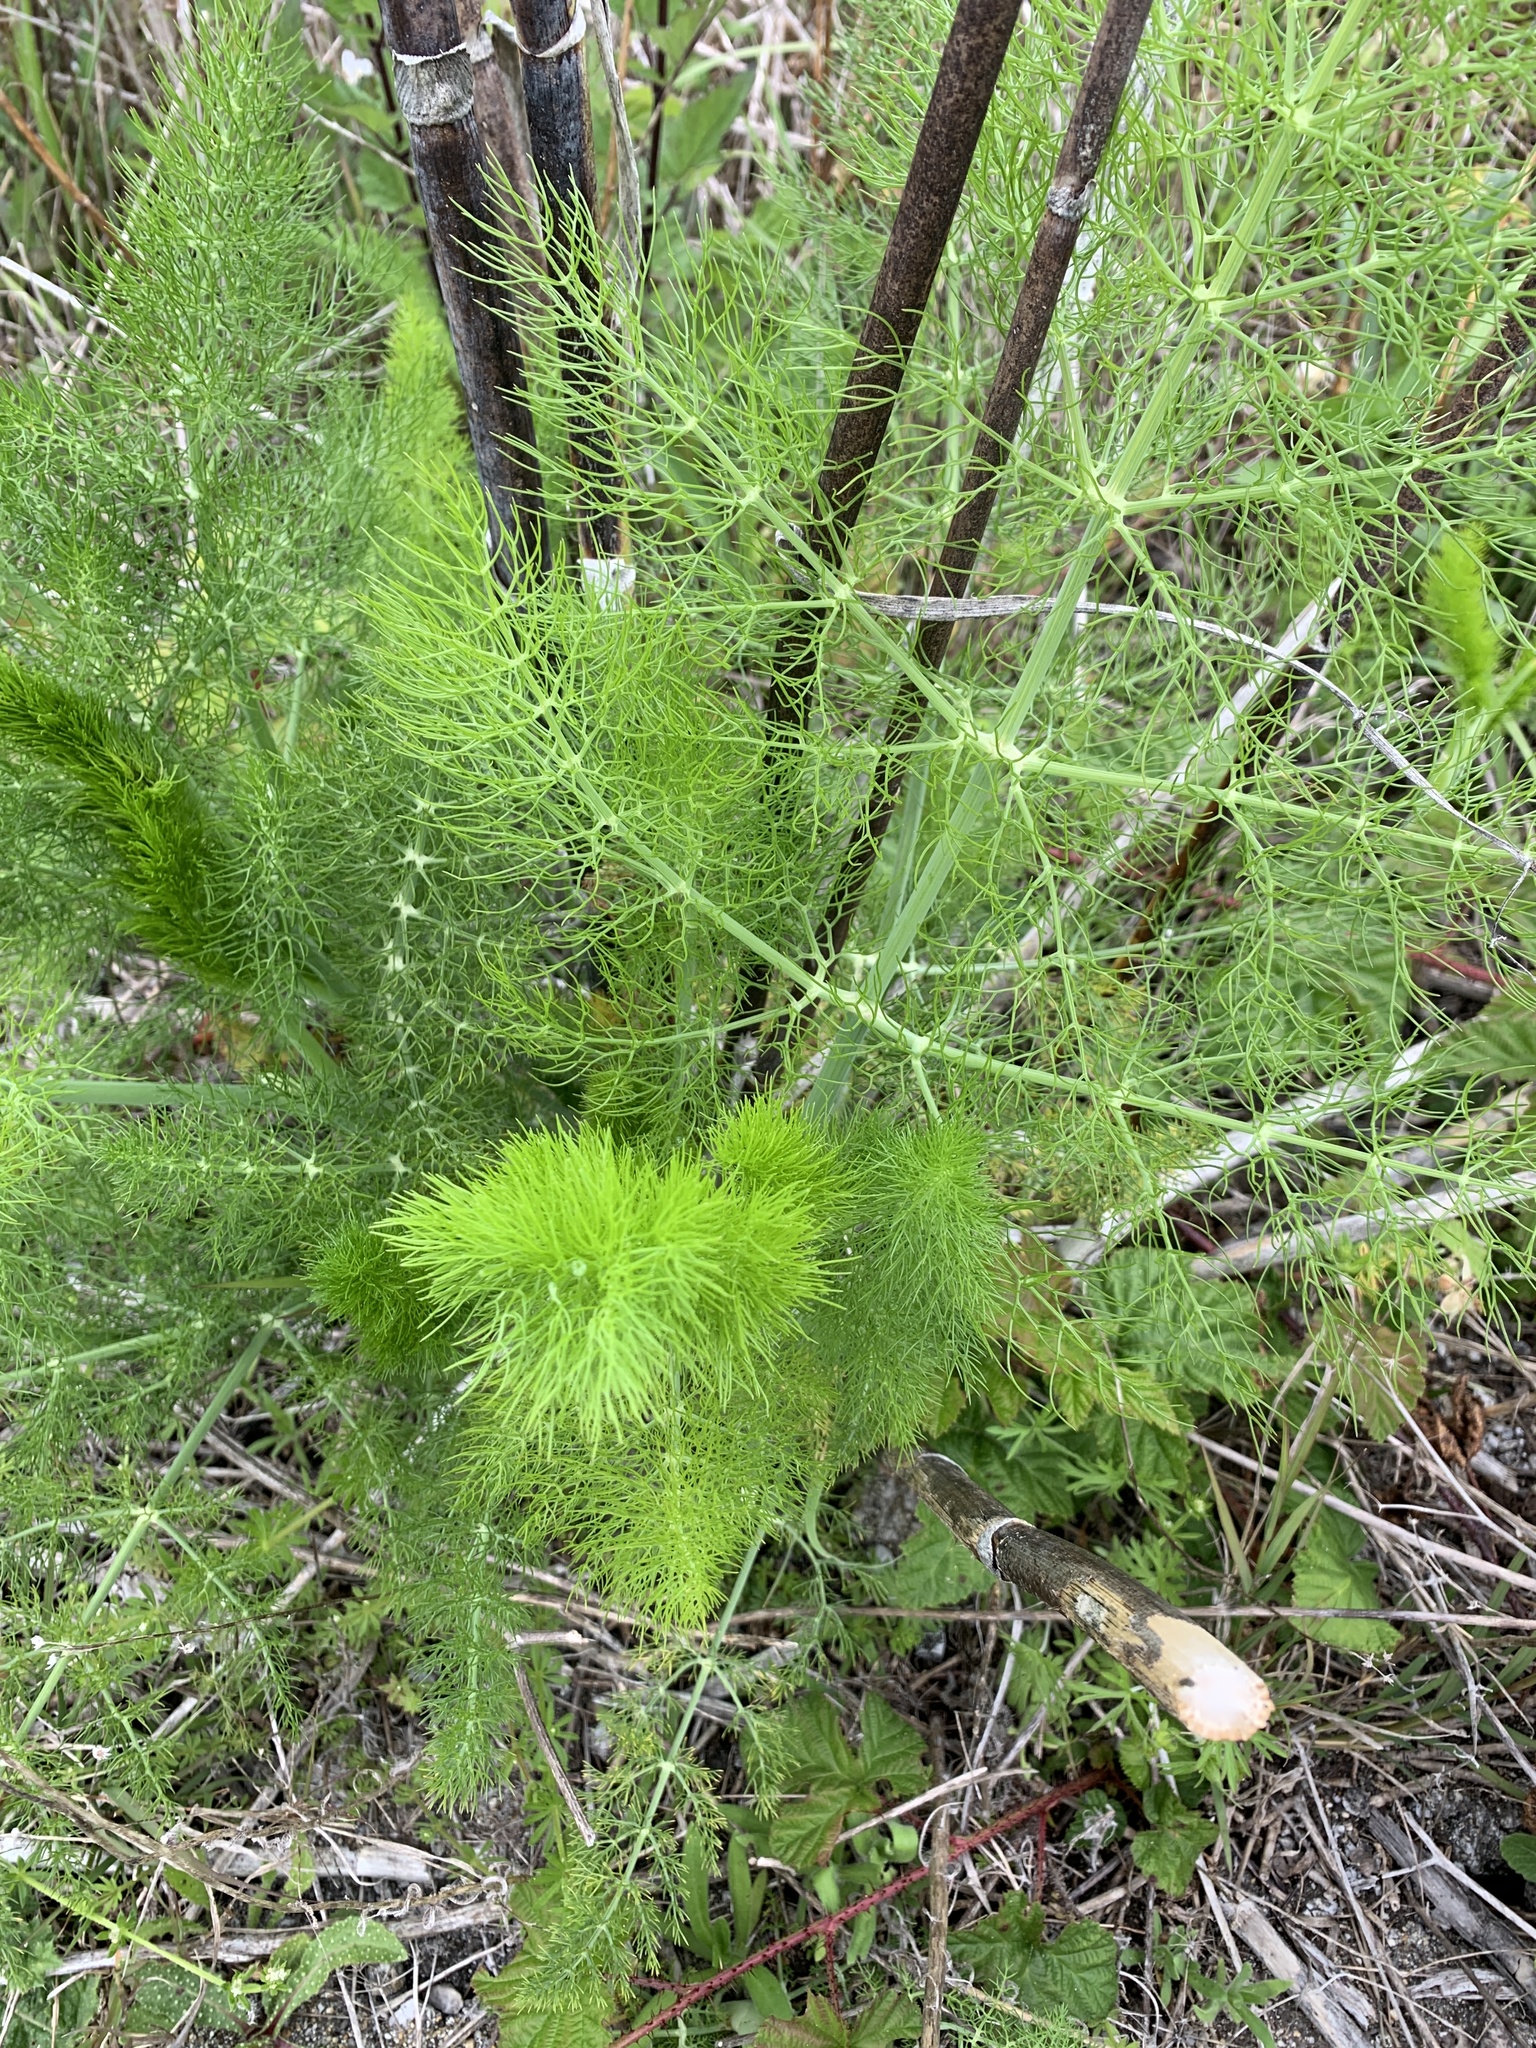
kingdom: Plantae
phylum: Tracheophyta
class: Magnoliopsida
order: Apiales
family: Apiaceae
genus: Foeniculum
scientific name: Foeniculum vulgare
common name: Fennel
